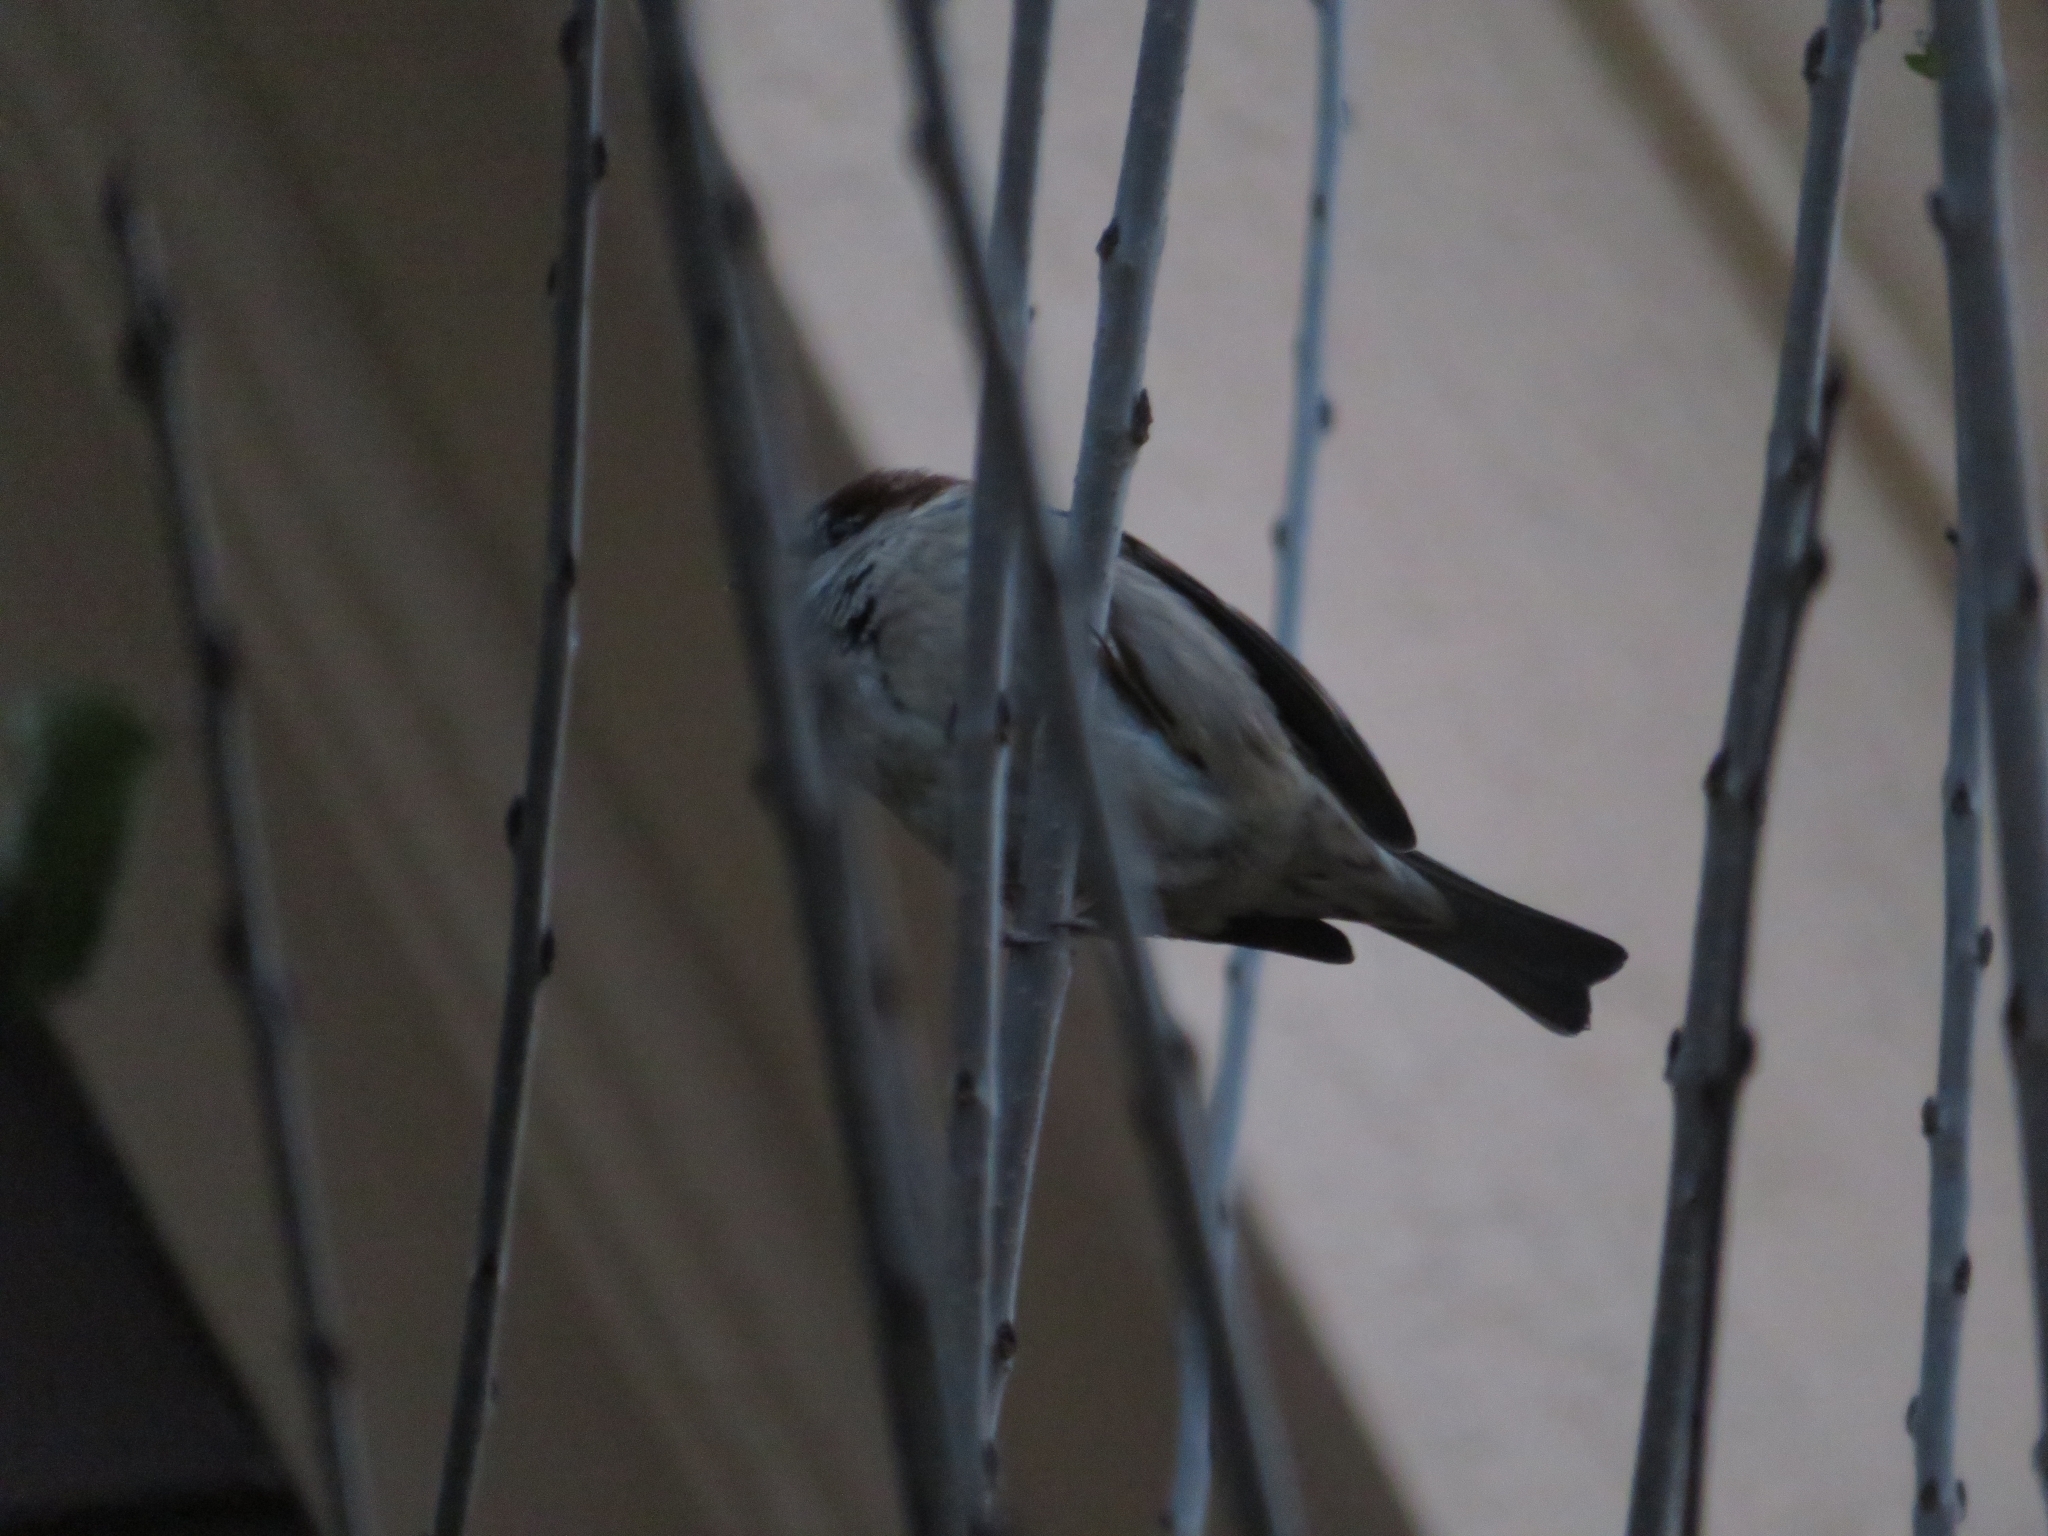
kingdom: Animalia
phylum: Chordata
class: Aves
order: Passeriformes
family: Passeridae
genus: Passer
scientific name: Passer domesticus
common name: House sparrow
